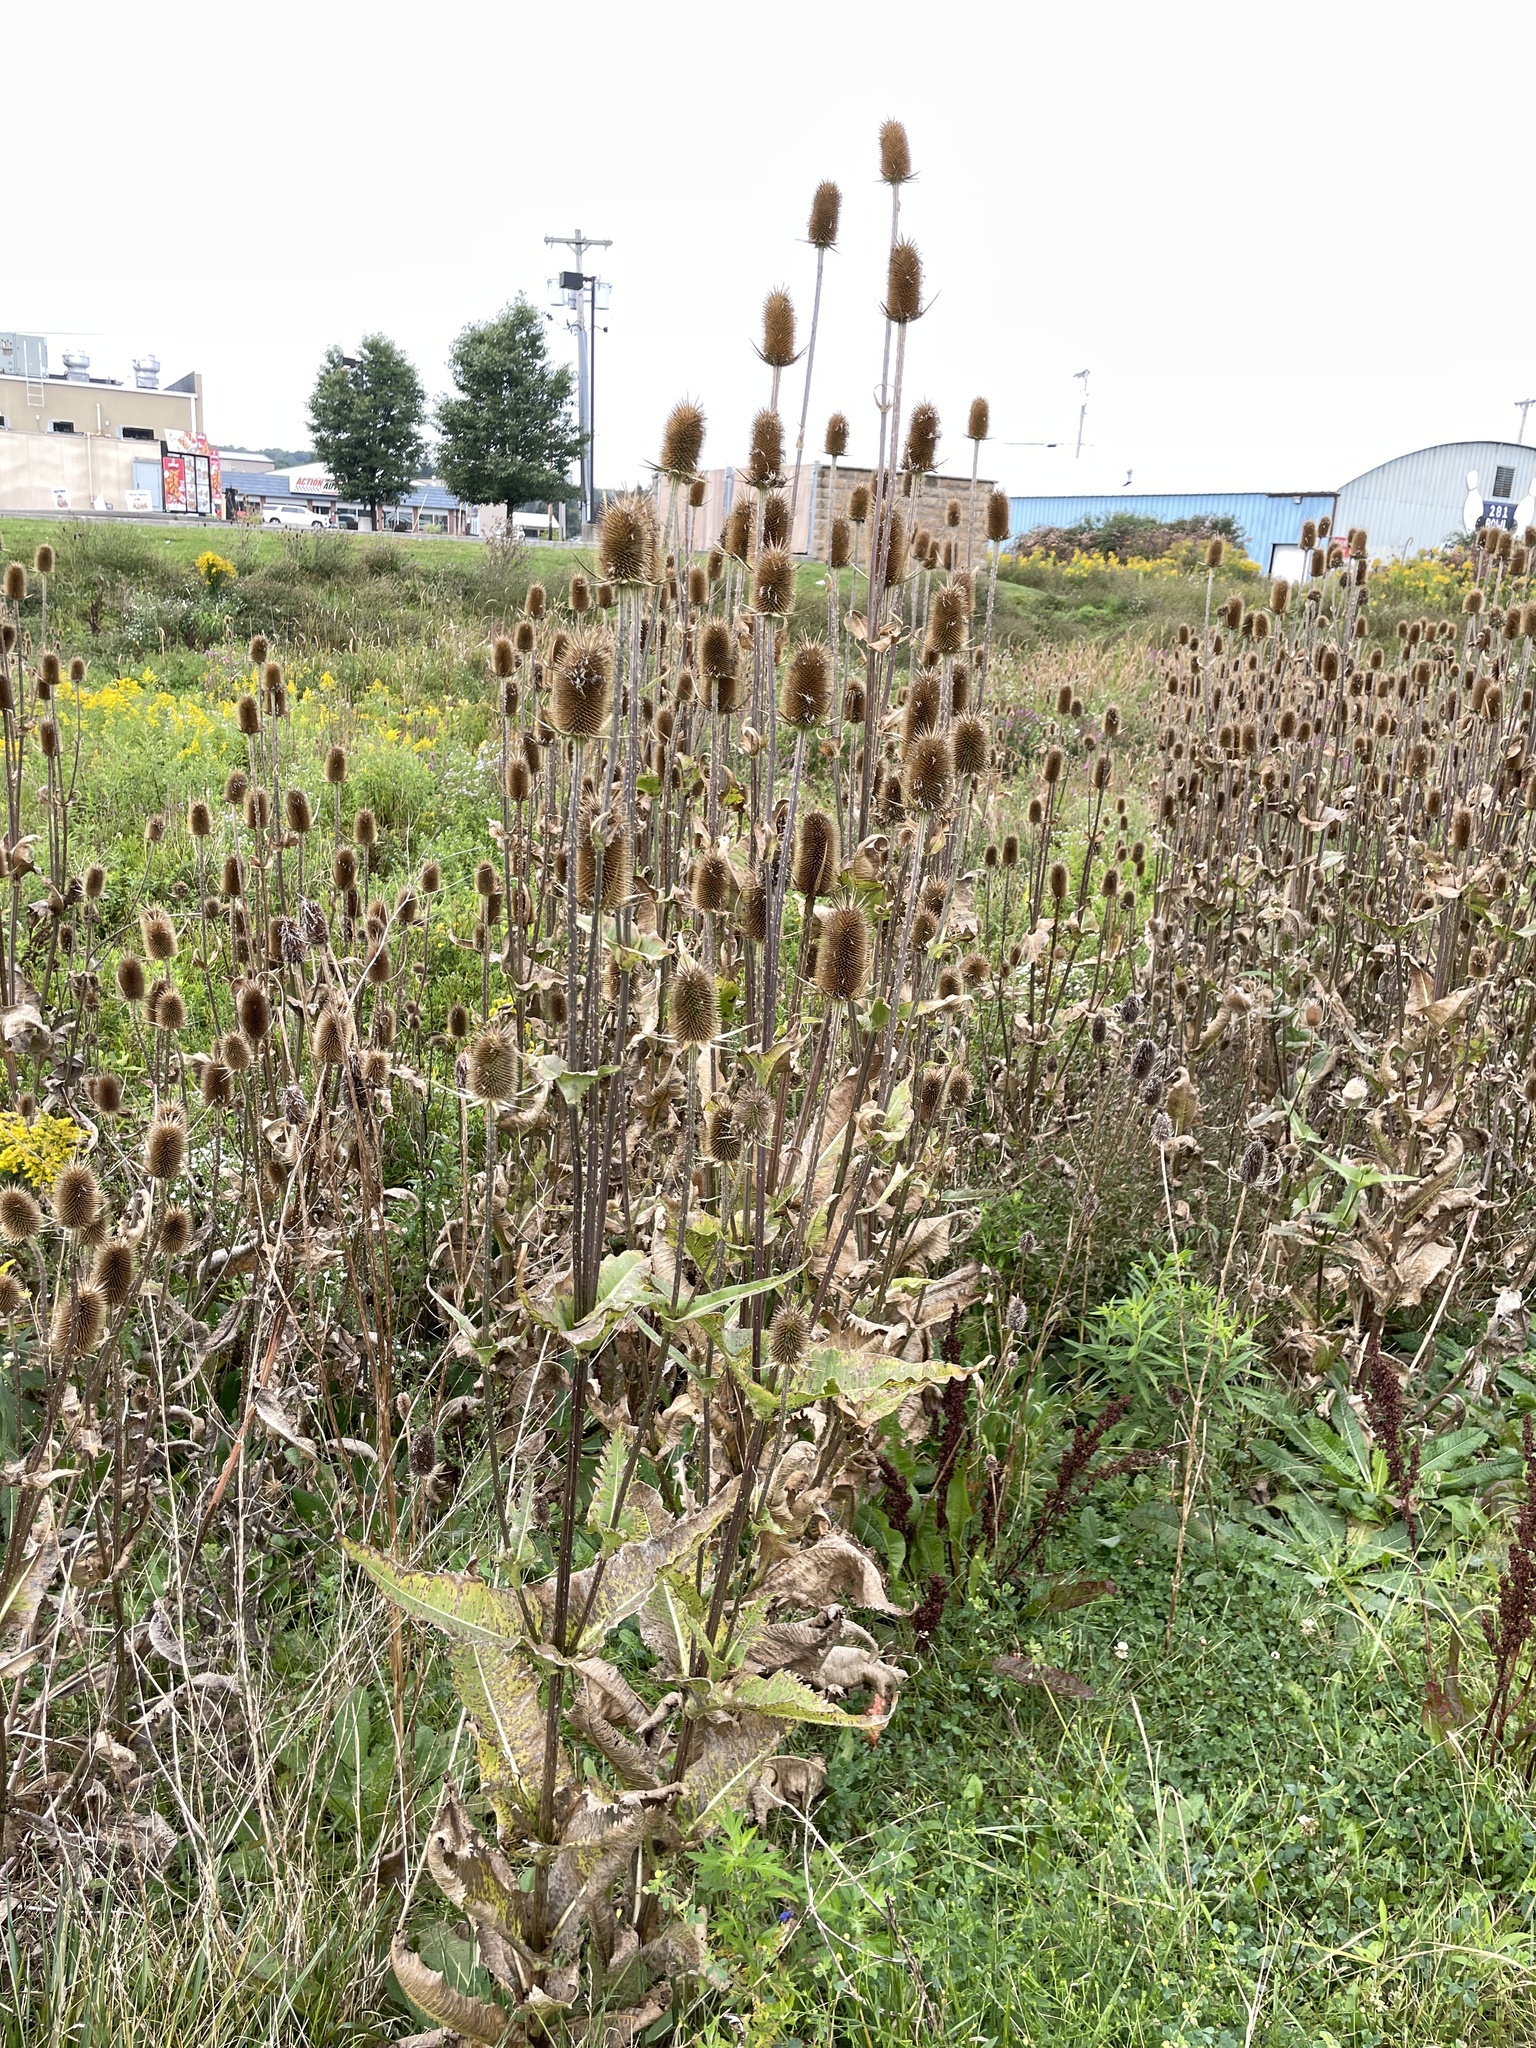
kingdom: Plantae
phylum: Tracheophyta
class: Magnoliopsida
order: Dipsacales
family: Caprifoliaceae
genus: Dipsacus
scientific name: Dipsacus laciniatus
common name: Cut-leaved teasel
